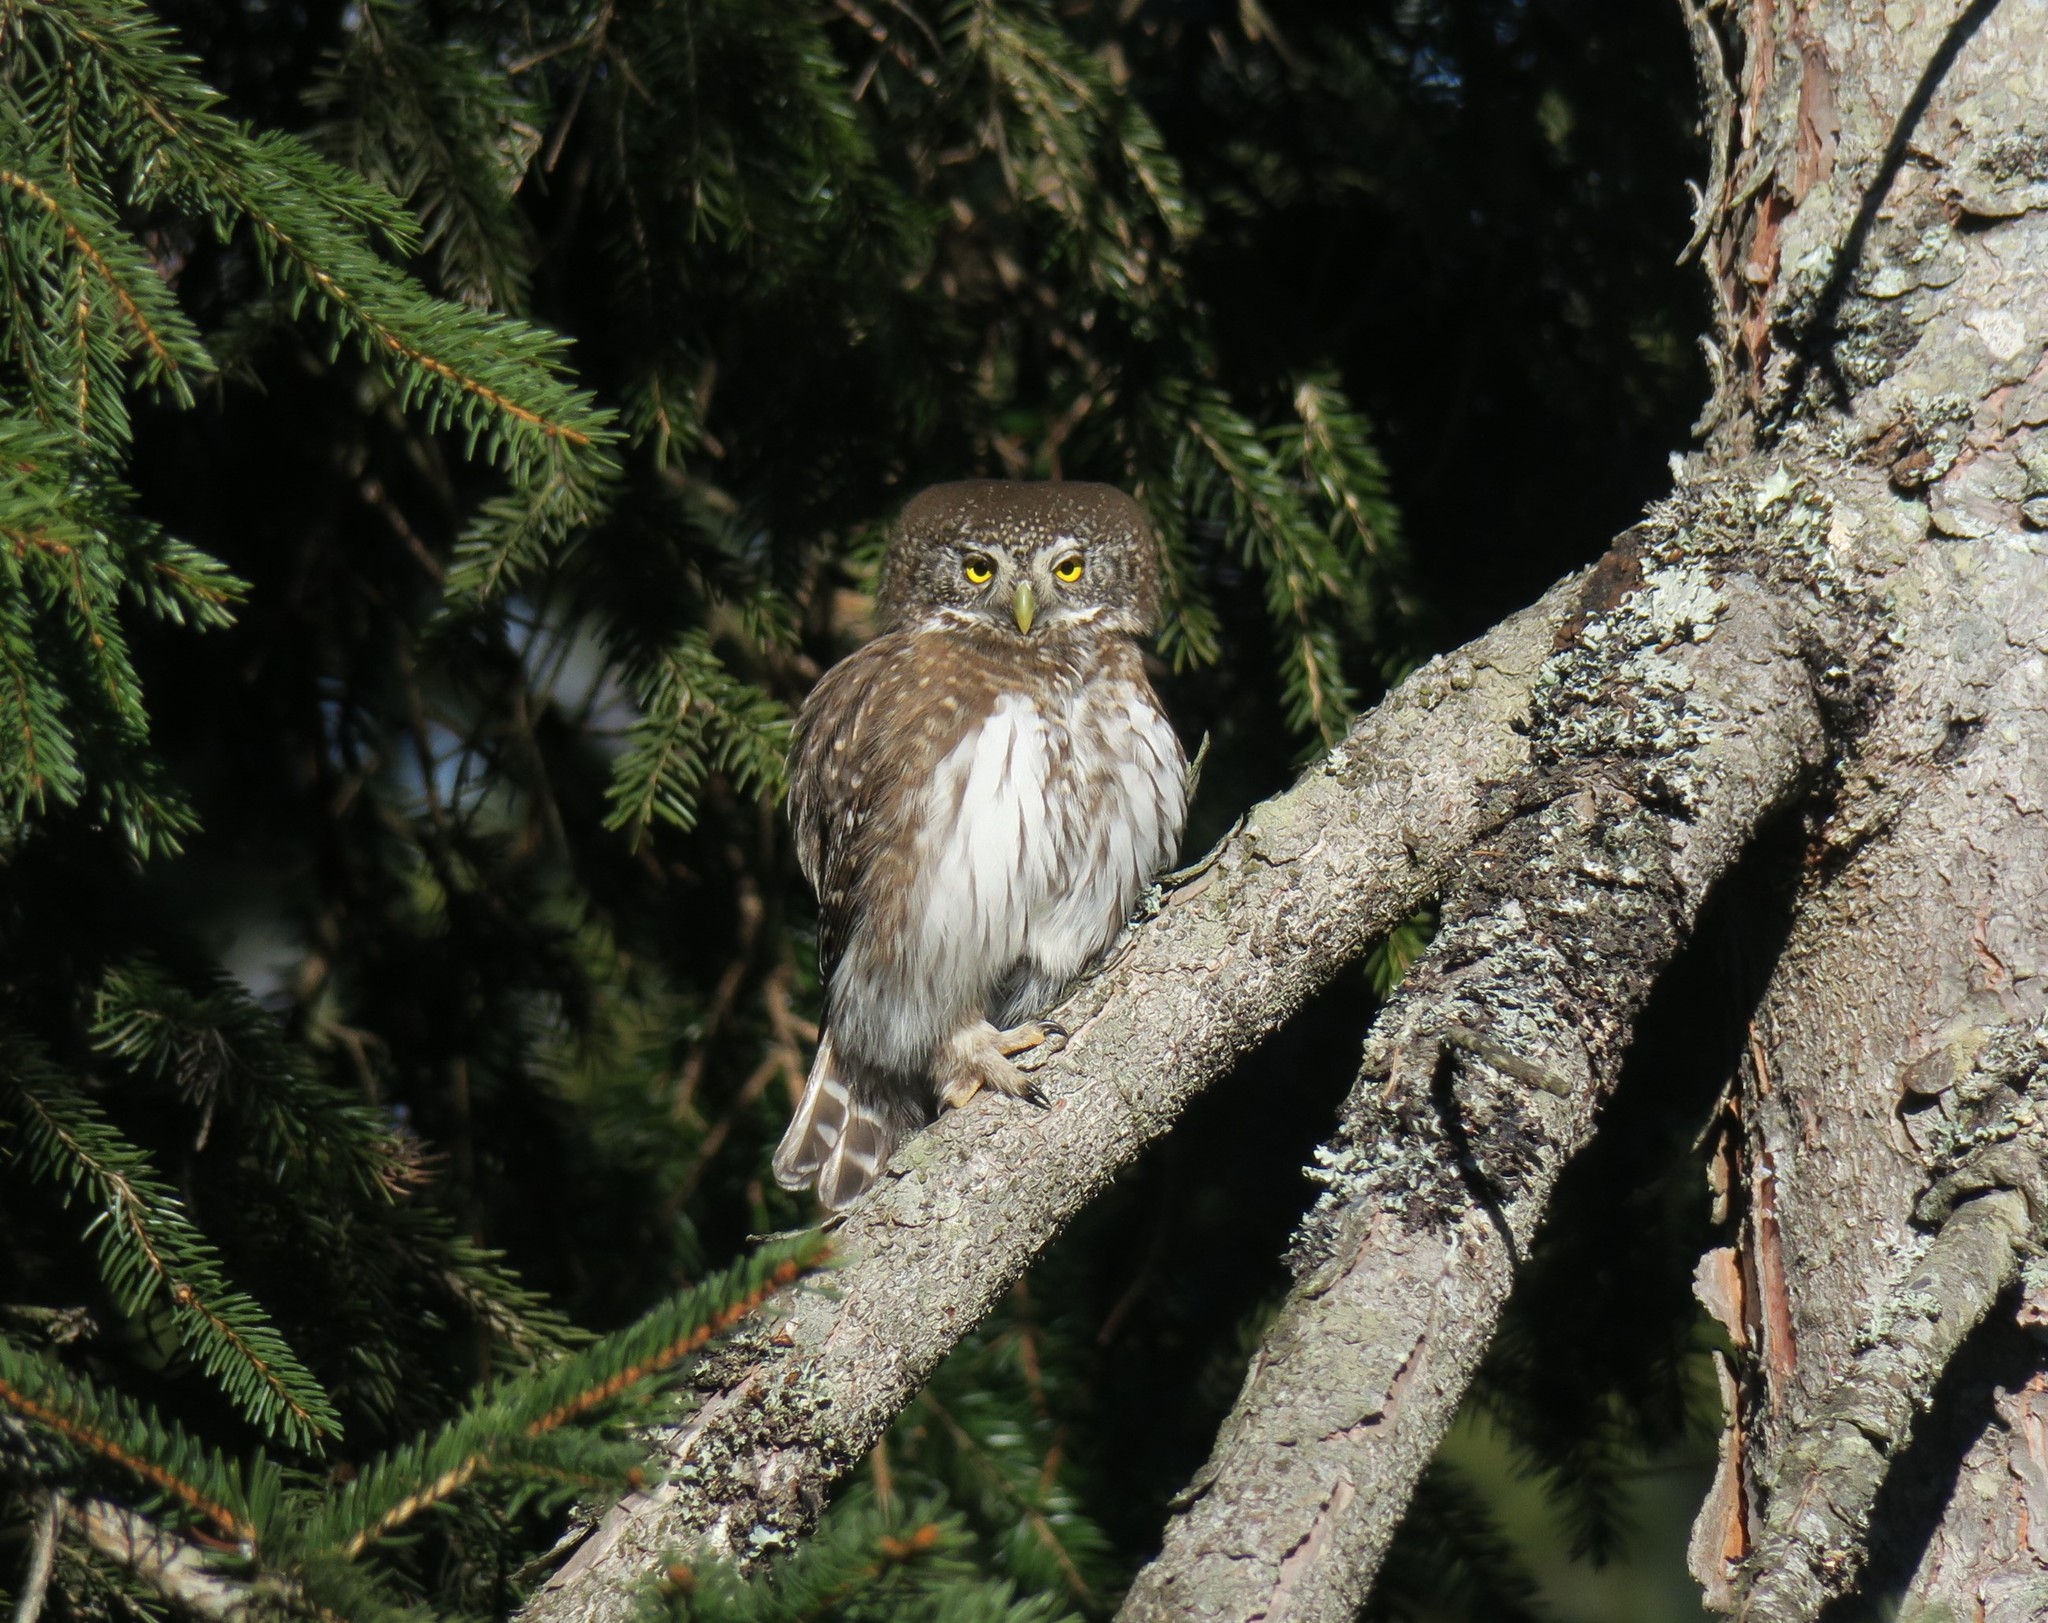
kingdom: Animalia
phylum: Chordata
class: Aves
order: Strigiformes
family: Strigidae
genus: Glaucidium
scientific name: Glaucidium passerinum
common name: Eurasian pygmy owl
